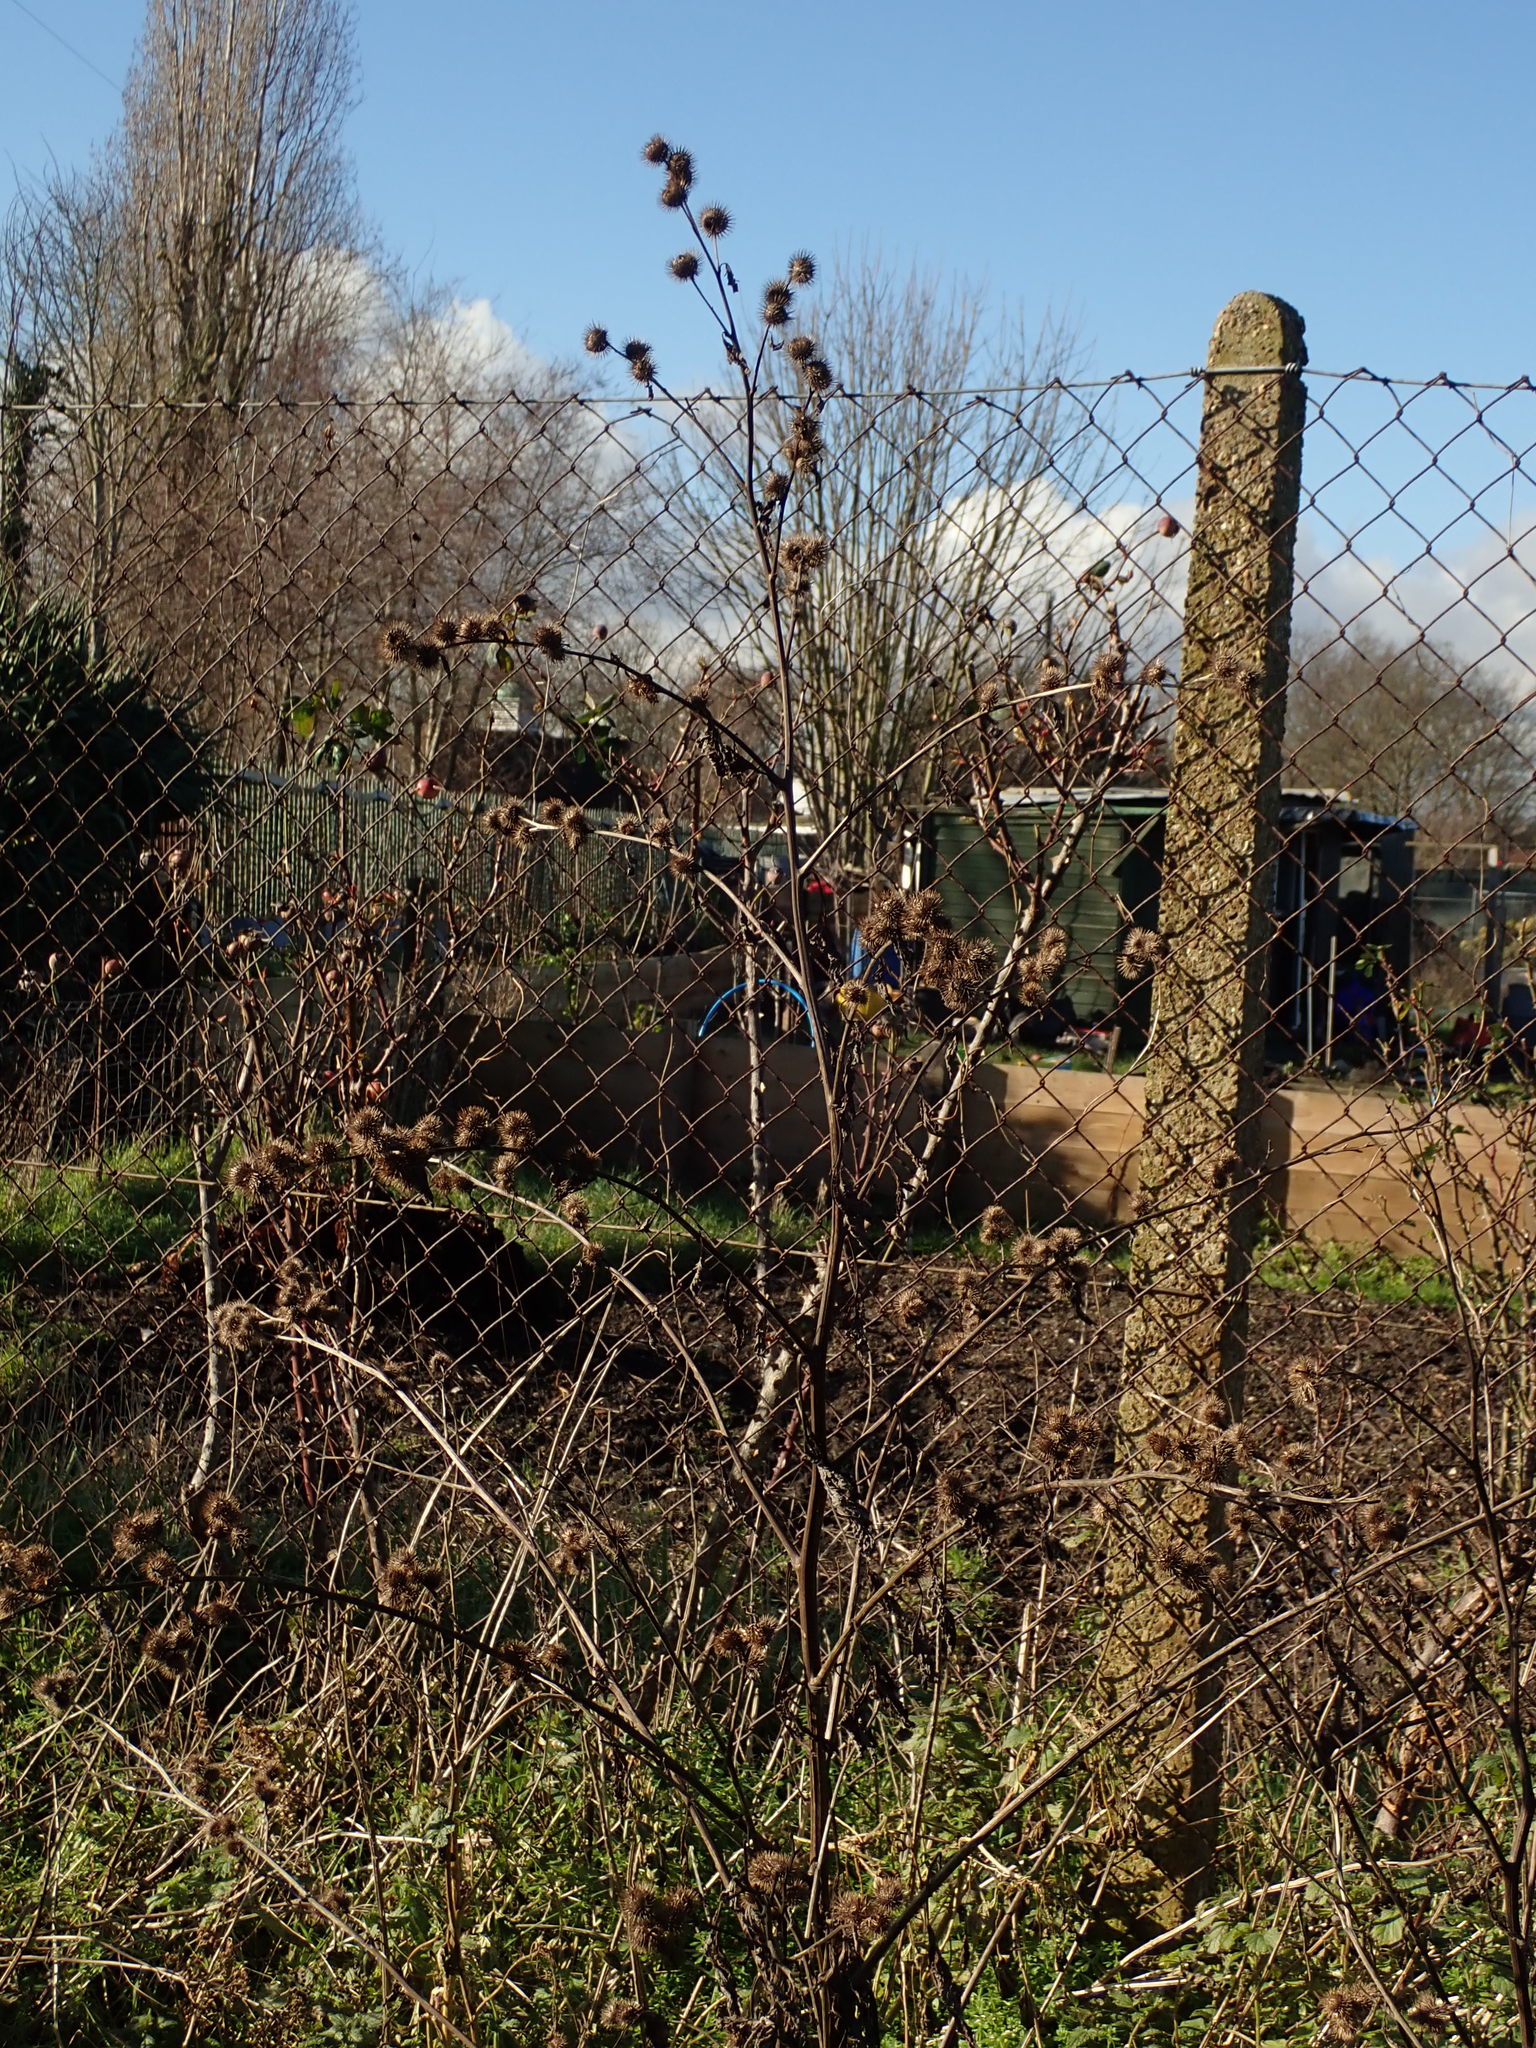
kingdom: Plantae
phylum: Tracheophyta
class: Magnoliopsida
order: Asterales
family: Asteraceae
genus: Arctium
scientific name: Arctium minus
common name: Lesser burdock
